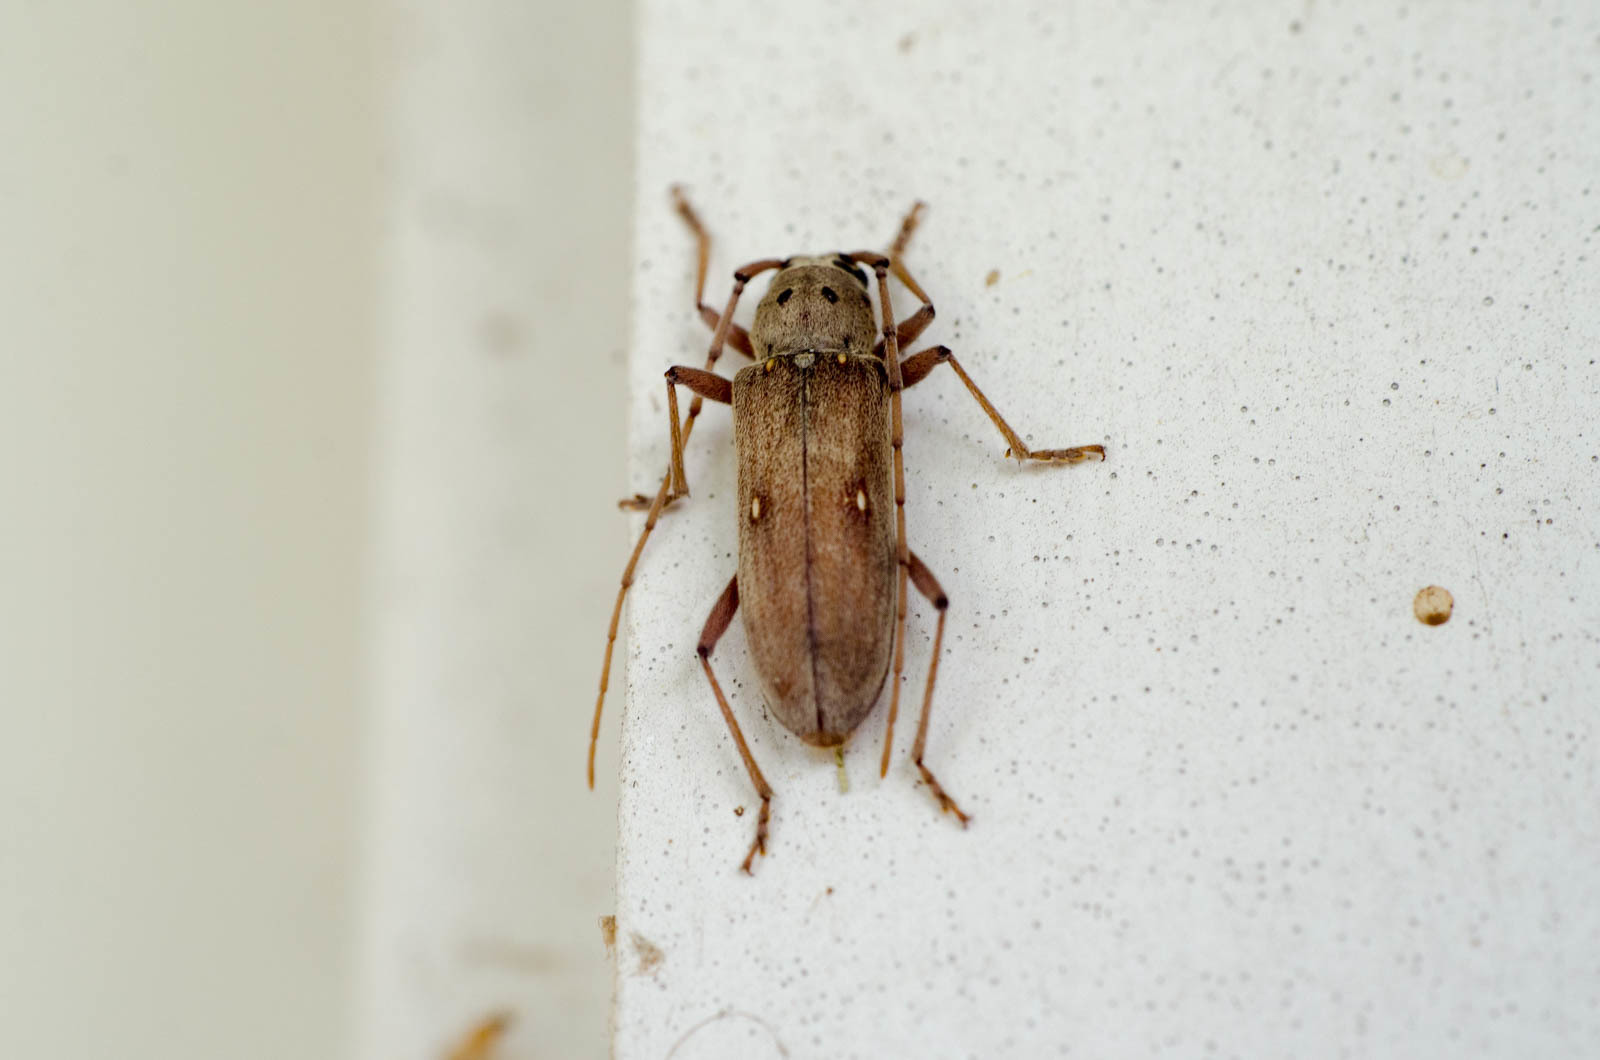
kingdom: Animalia
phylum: Arthropoda
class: Insecta
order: Coleoptera
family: Cerambycidae
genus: Eburia
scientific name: Eburia mutica
